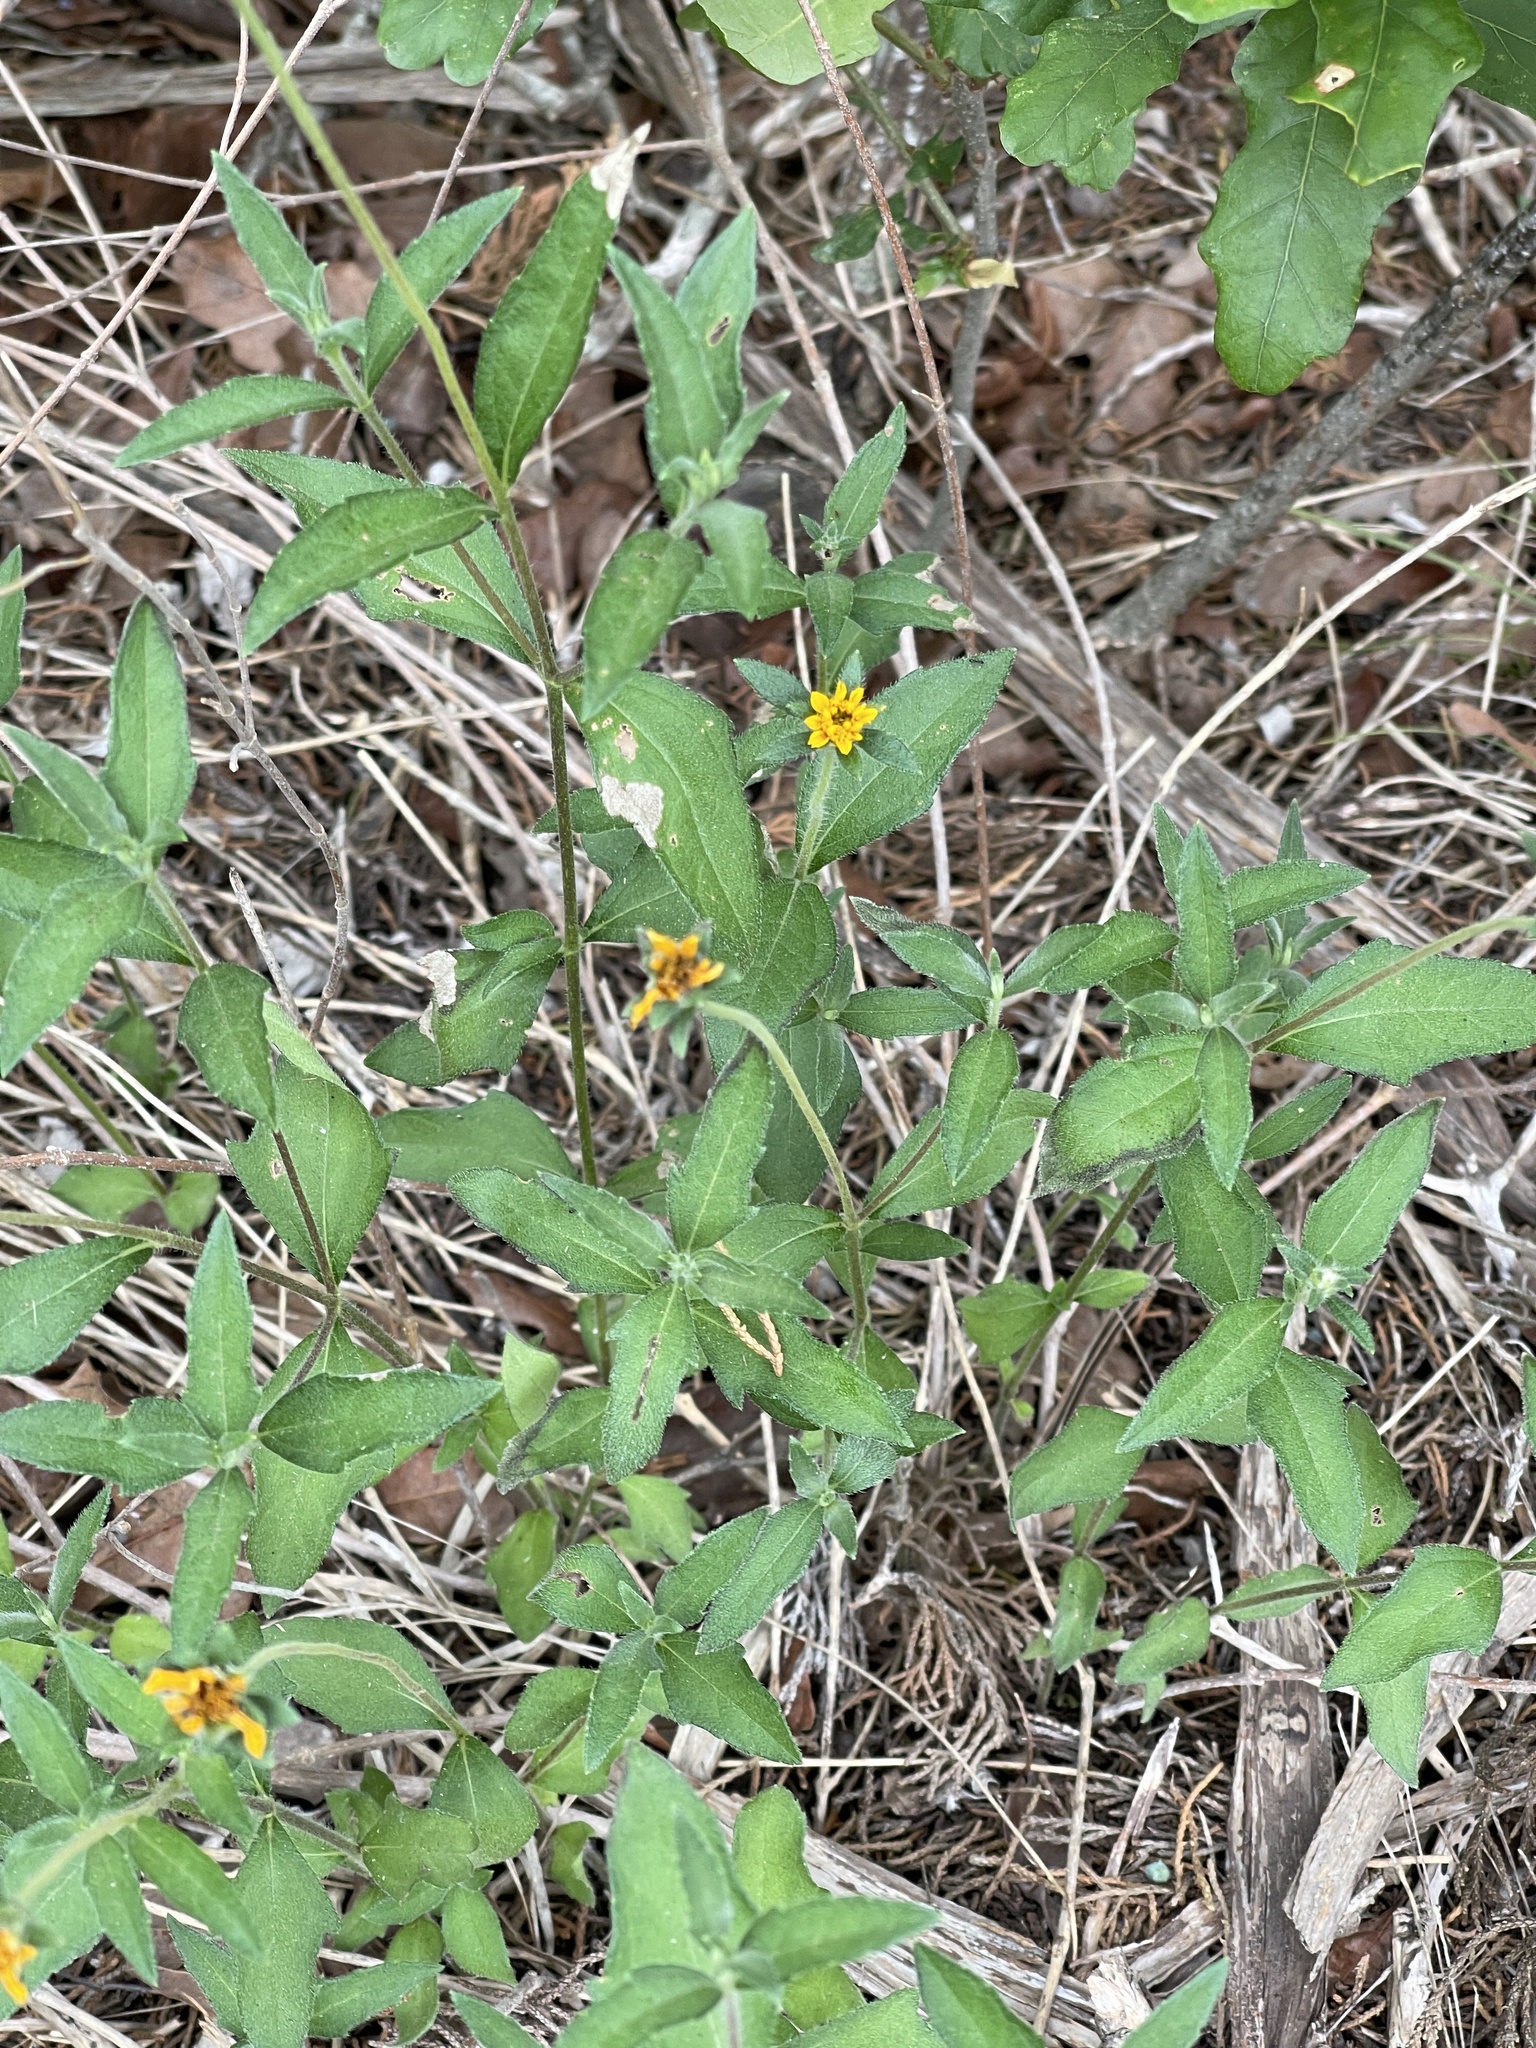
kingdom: Plantae
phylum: Tracheophyta
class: Magnoliopsida
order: Asterales
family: Asteraceae
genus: Wedelia
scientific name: Wedelia acapulcensis
